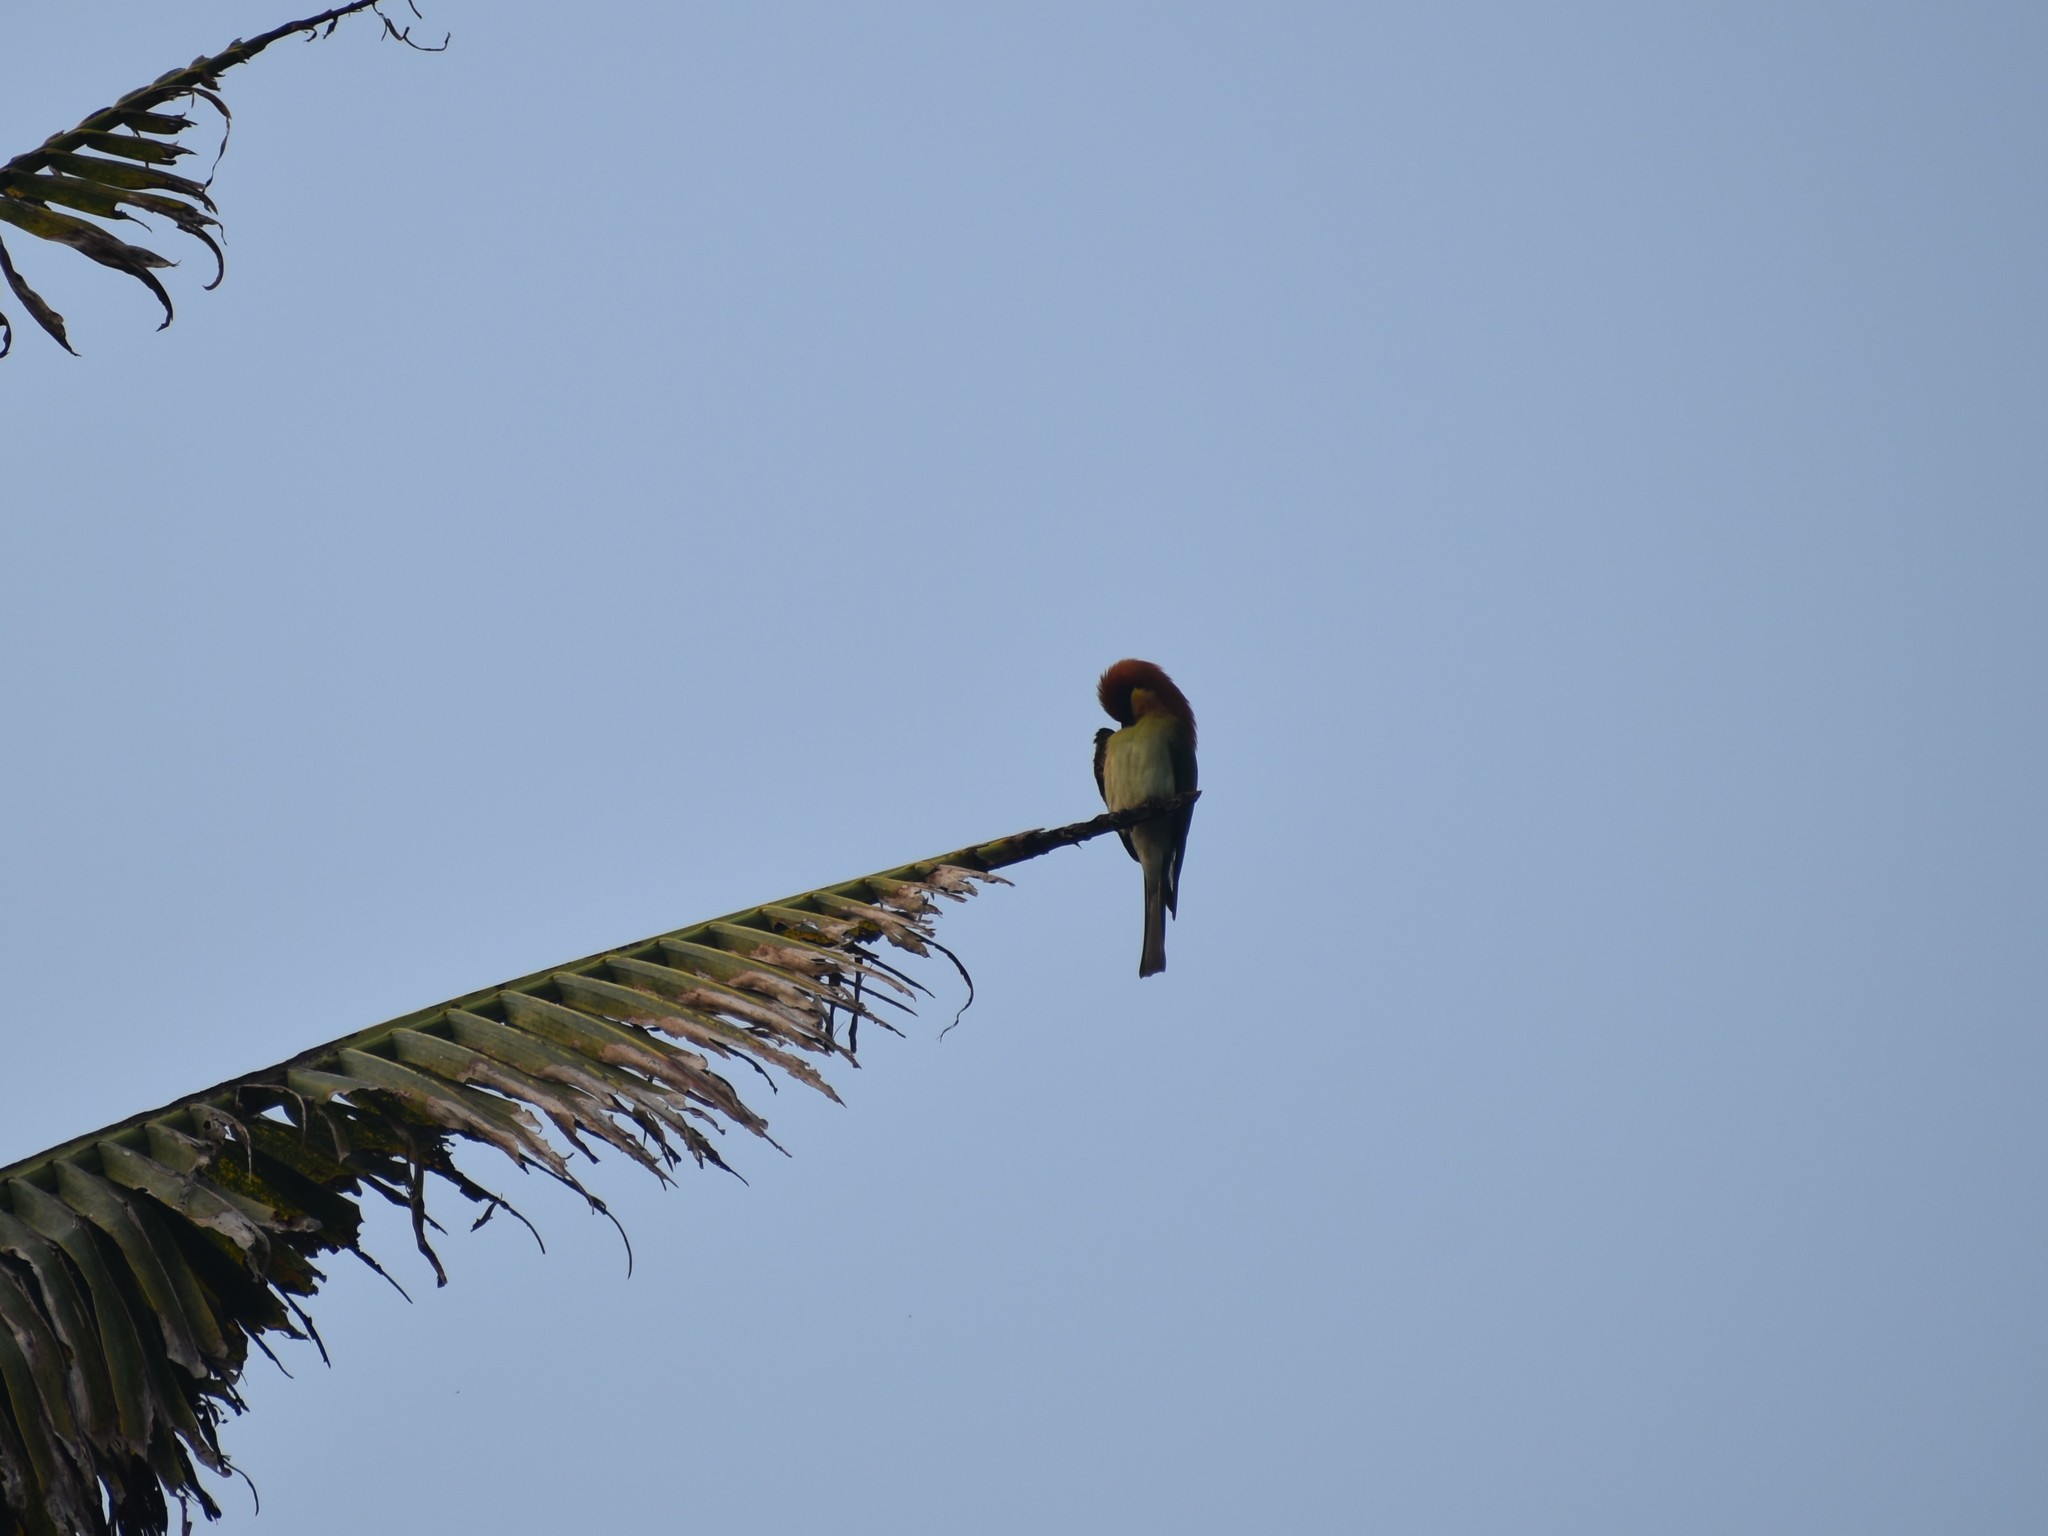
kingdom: Animalia
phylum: Chordata
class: Aves
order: Coraciiformes
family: Meropidae
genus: Merops
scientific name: Merops leschenaulti
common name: Chestnut-headed bee-eater
